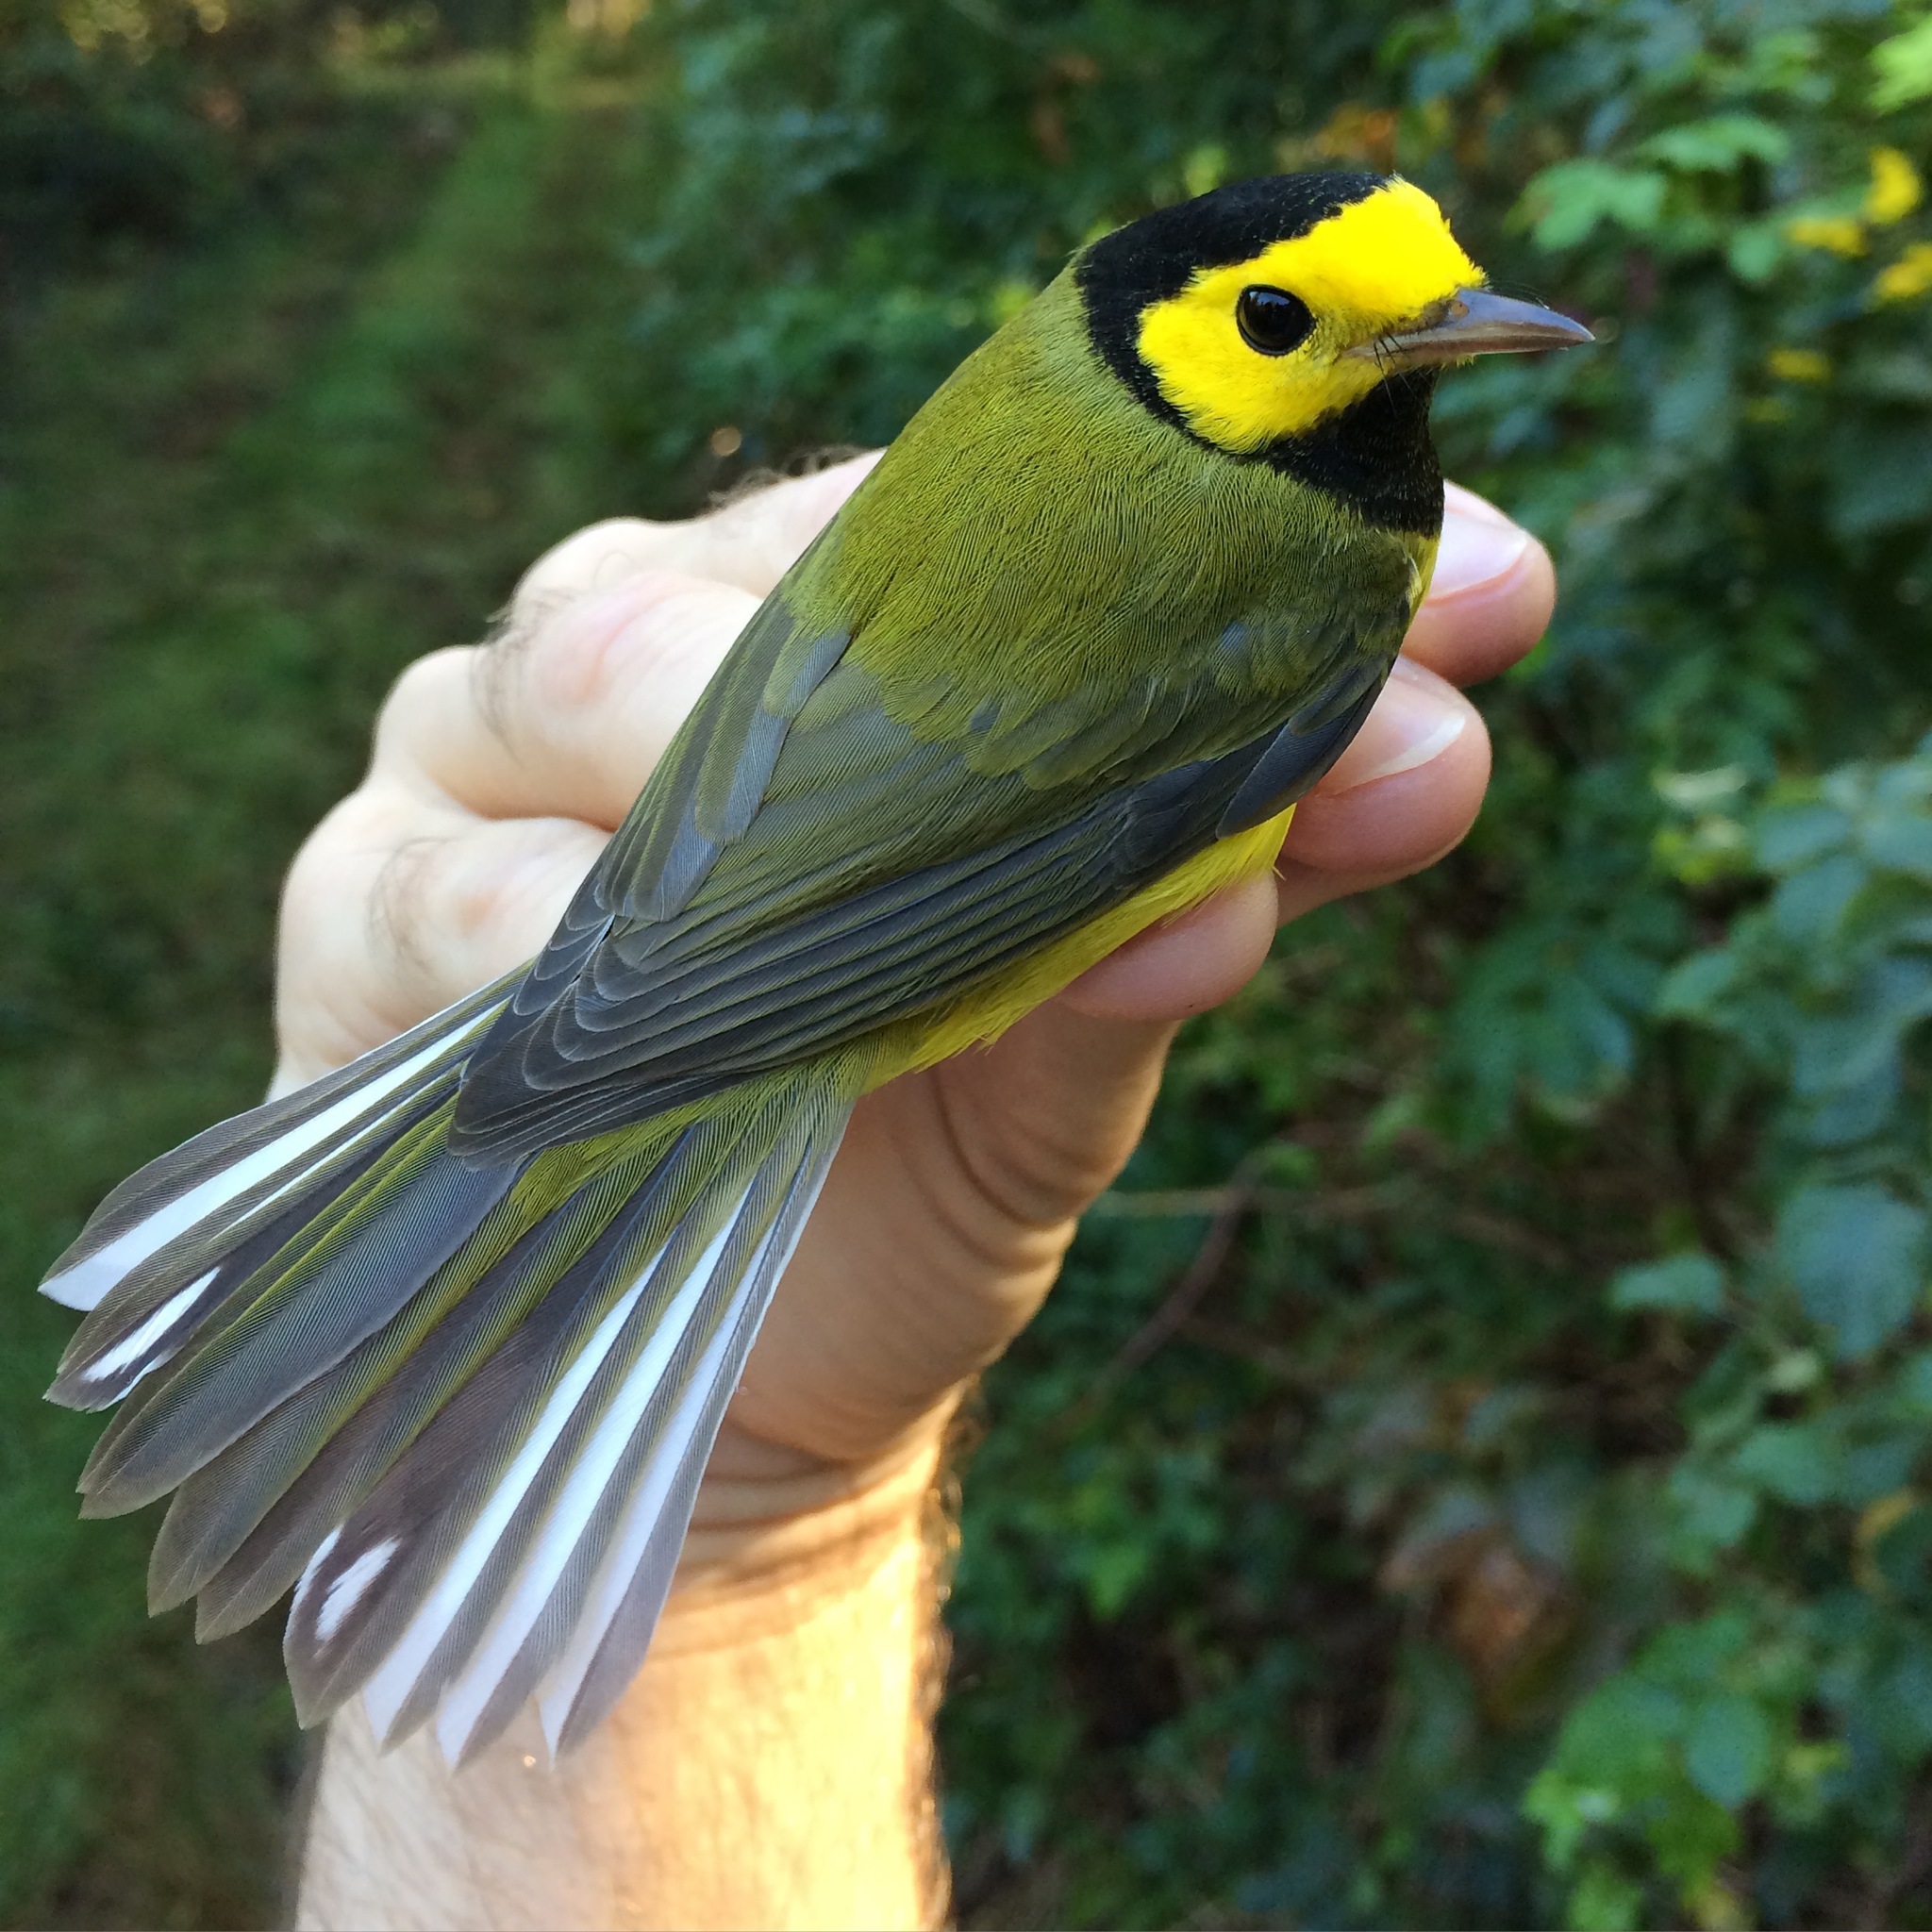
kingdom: Animalia
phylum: Chordata
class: Aves
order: Passeriformes
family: Parulidae
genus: Setophaga
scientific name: Setophaga citrina
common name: Hooded warbler
